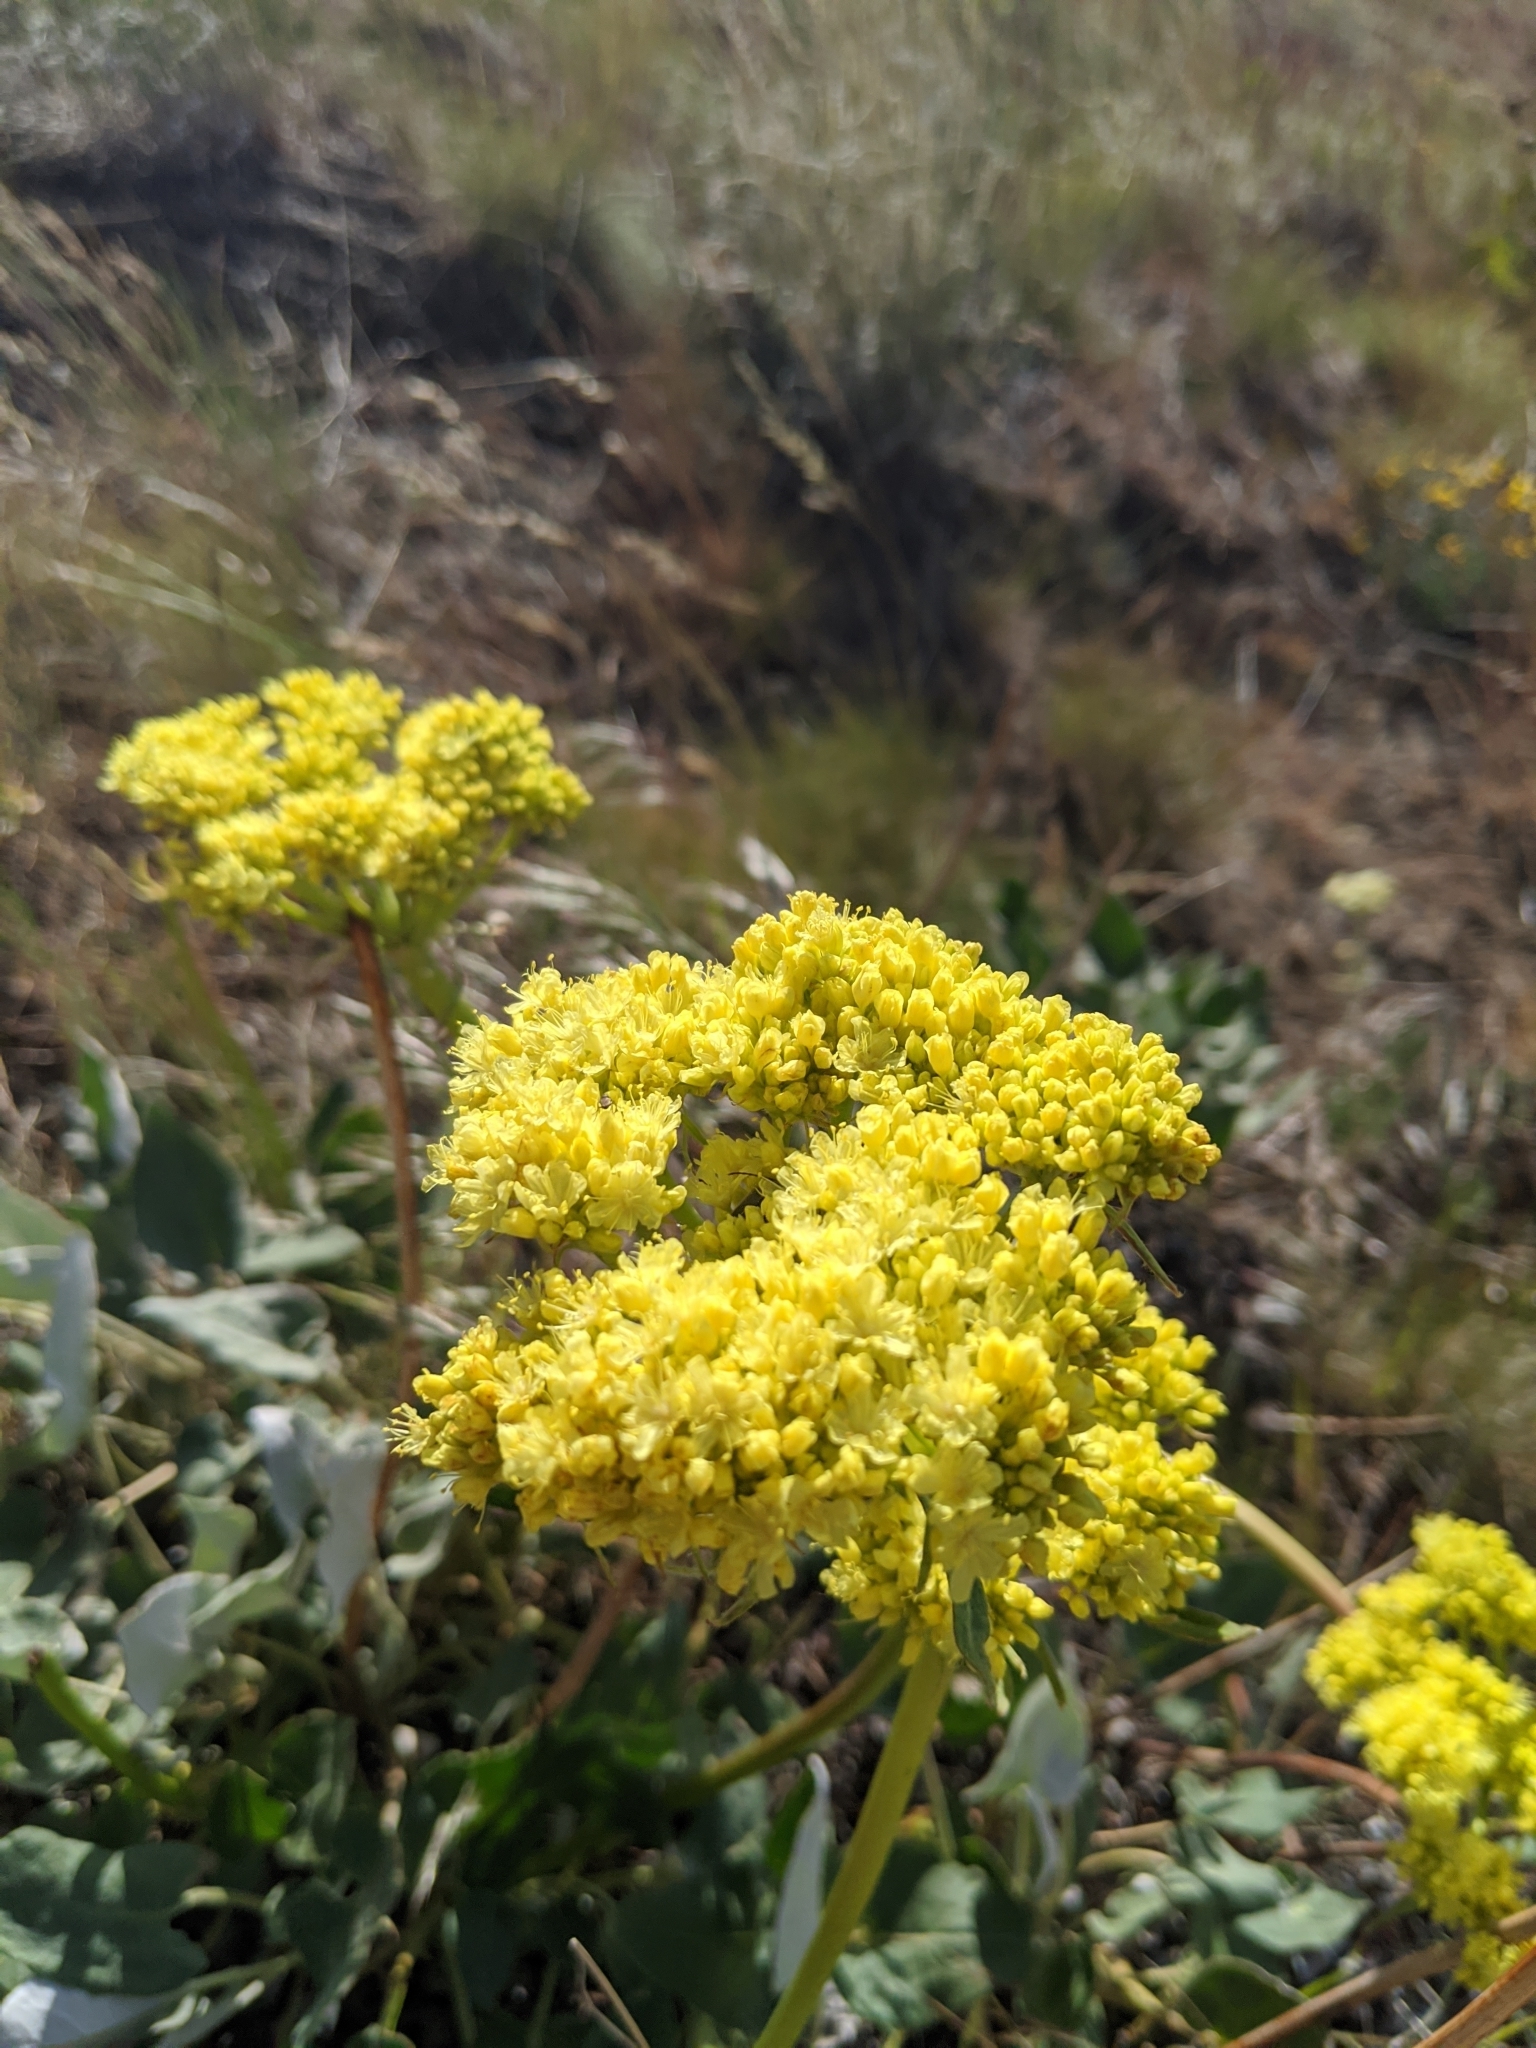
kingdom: Plantae
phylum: Tracheophyta
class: Magnoliopsida
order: Caryophyllales
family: Polygonaceae
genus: Eriogonum
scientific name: Eriogonum compositum
